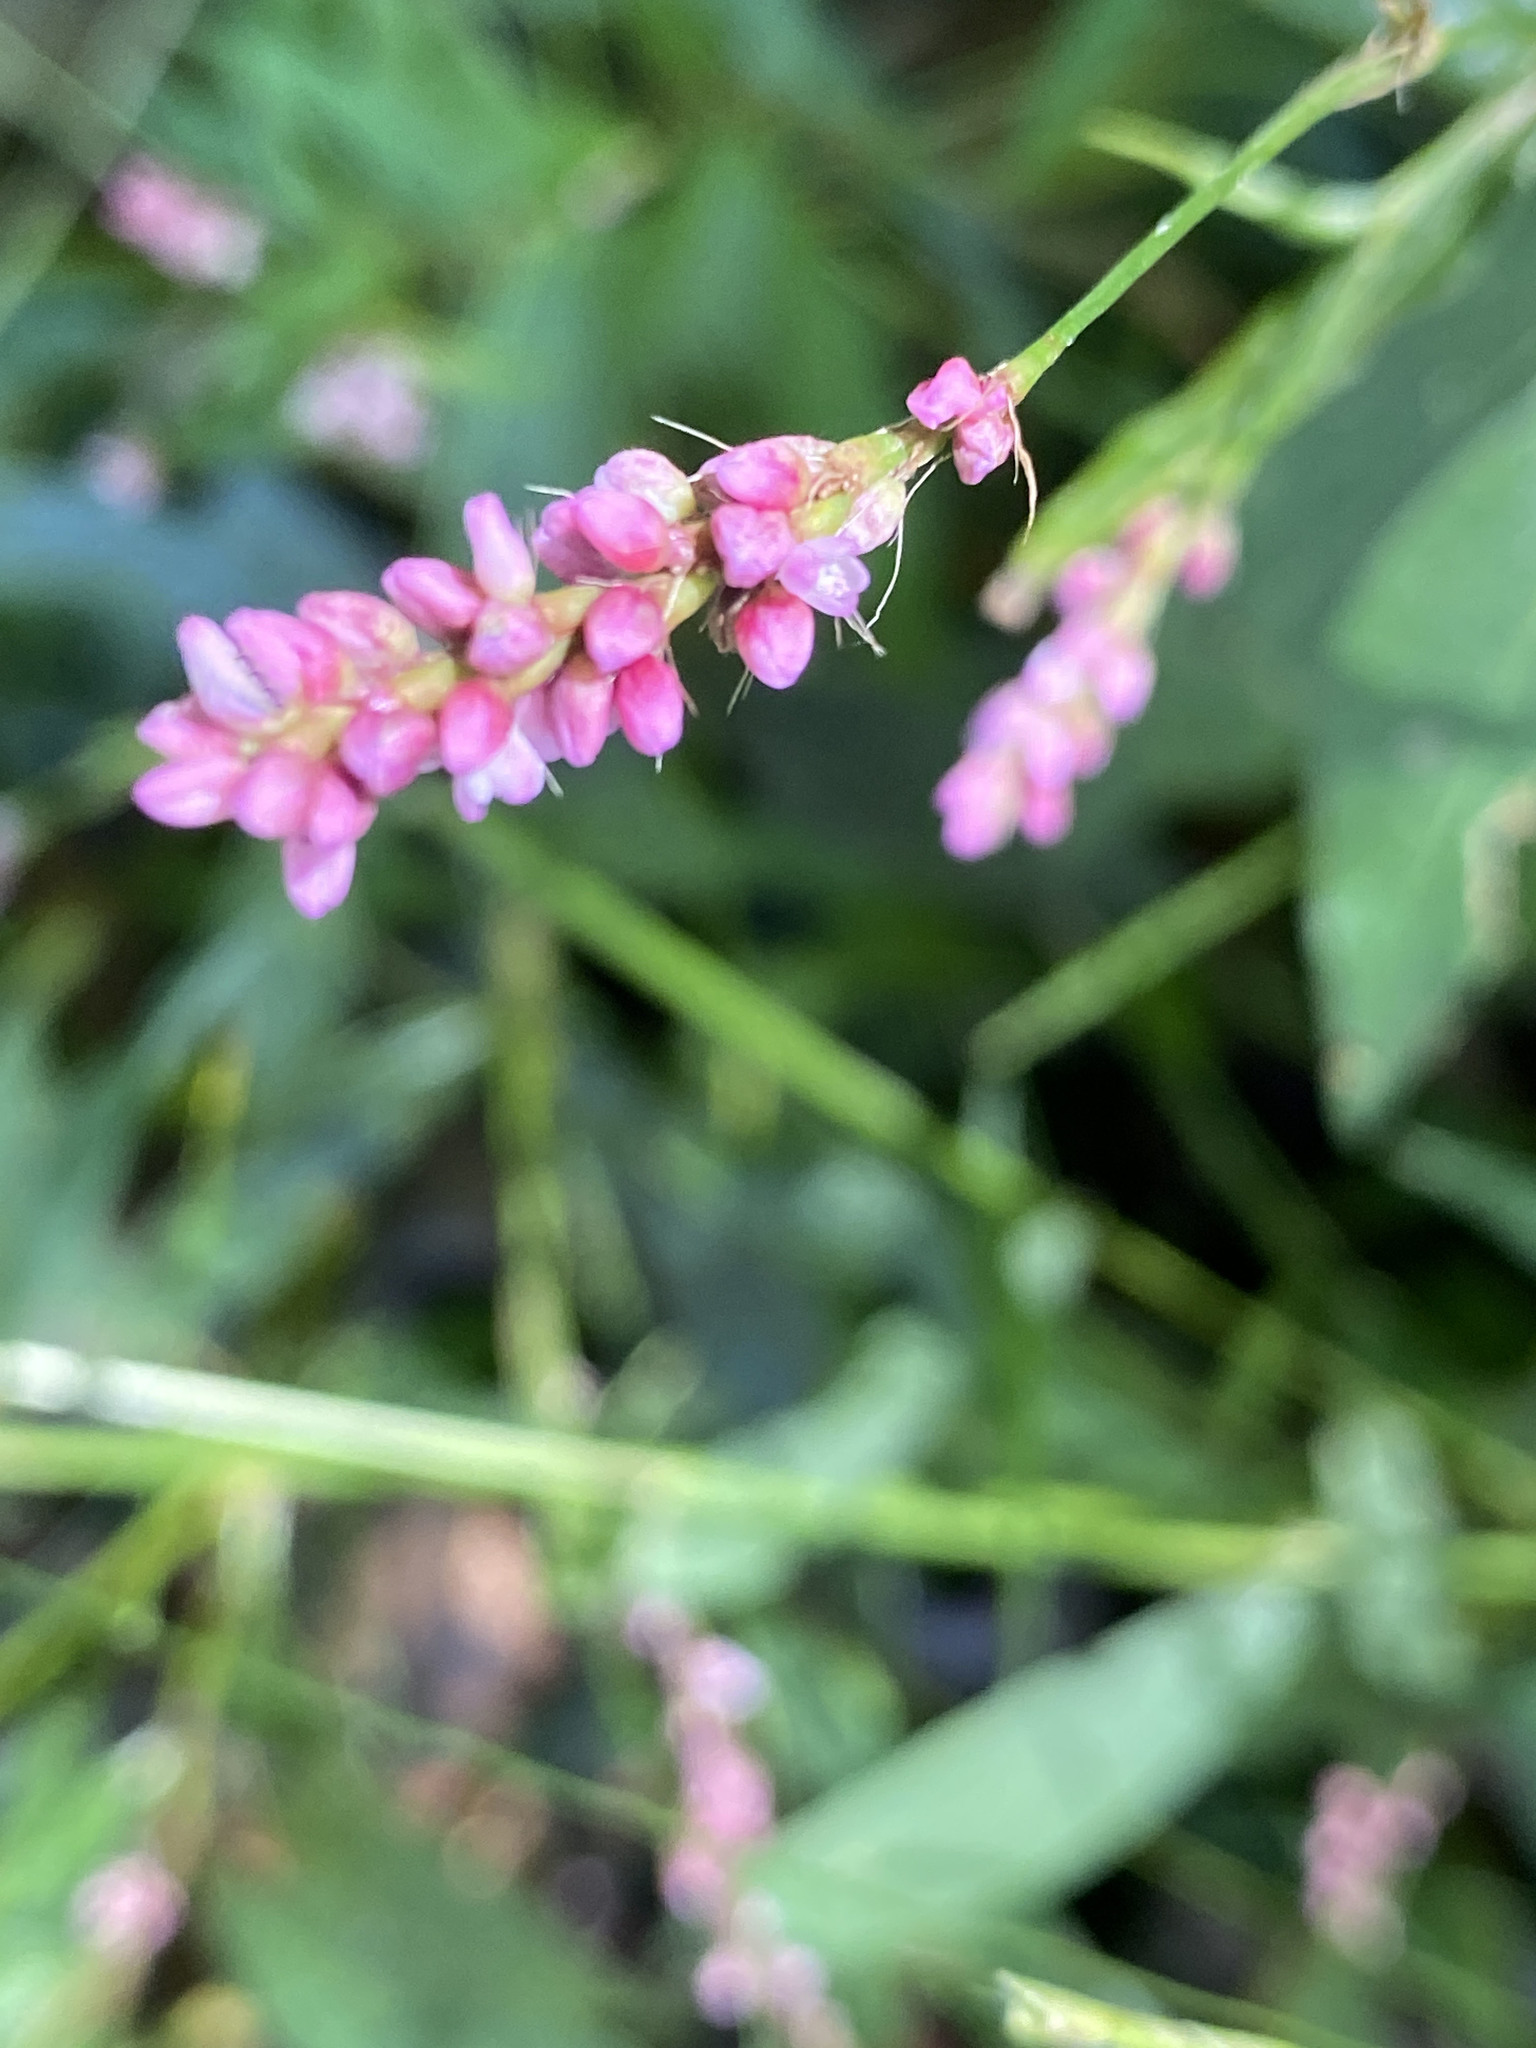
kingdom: Plantae
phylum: Tracheophyta
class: Magnoliopsida
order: Caryophyllales
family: Polygonaceae
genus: Persicaria
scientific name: Persicaria longiseta
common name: Bristly lady's-thumb
